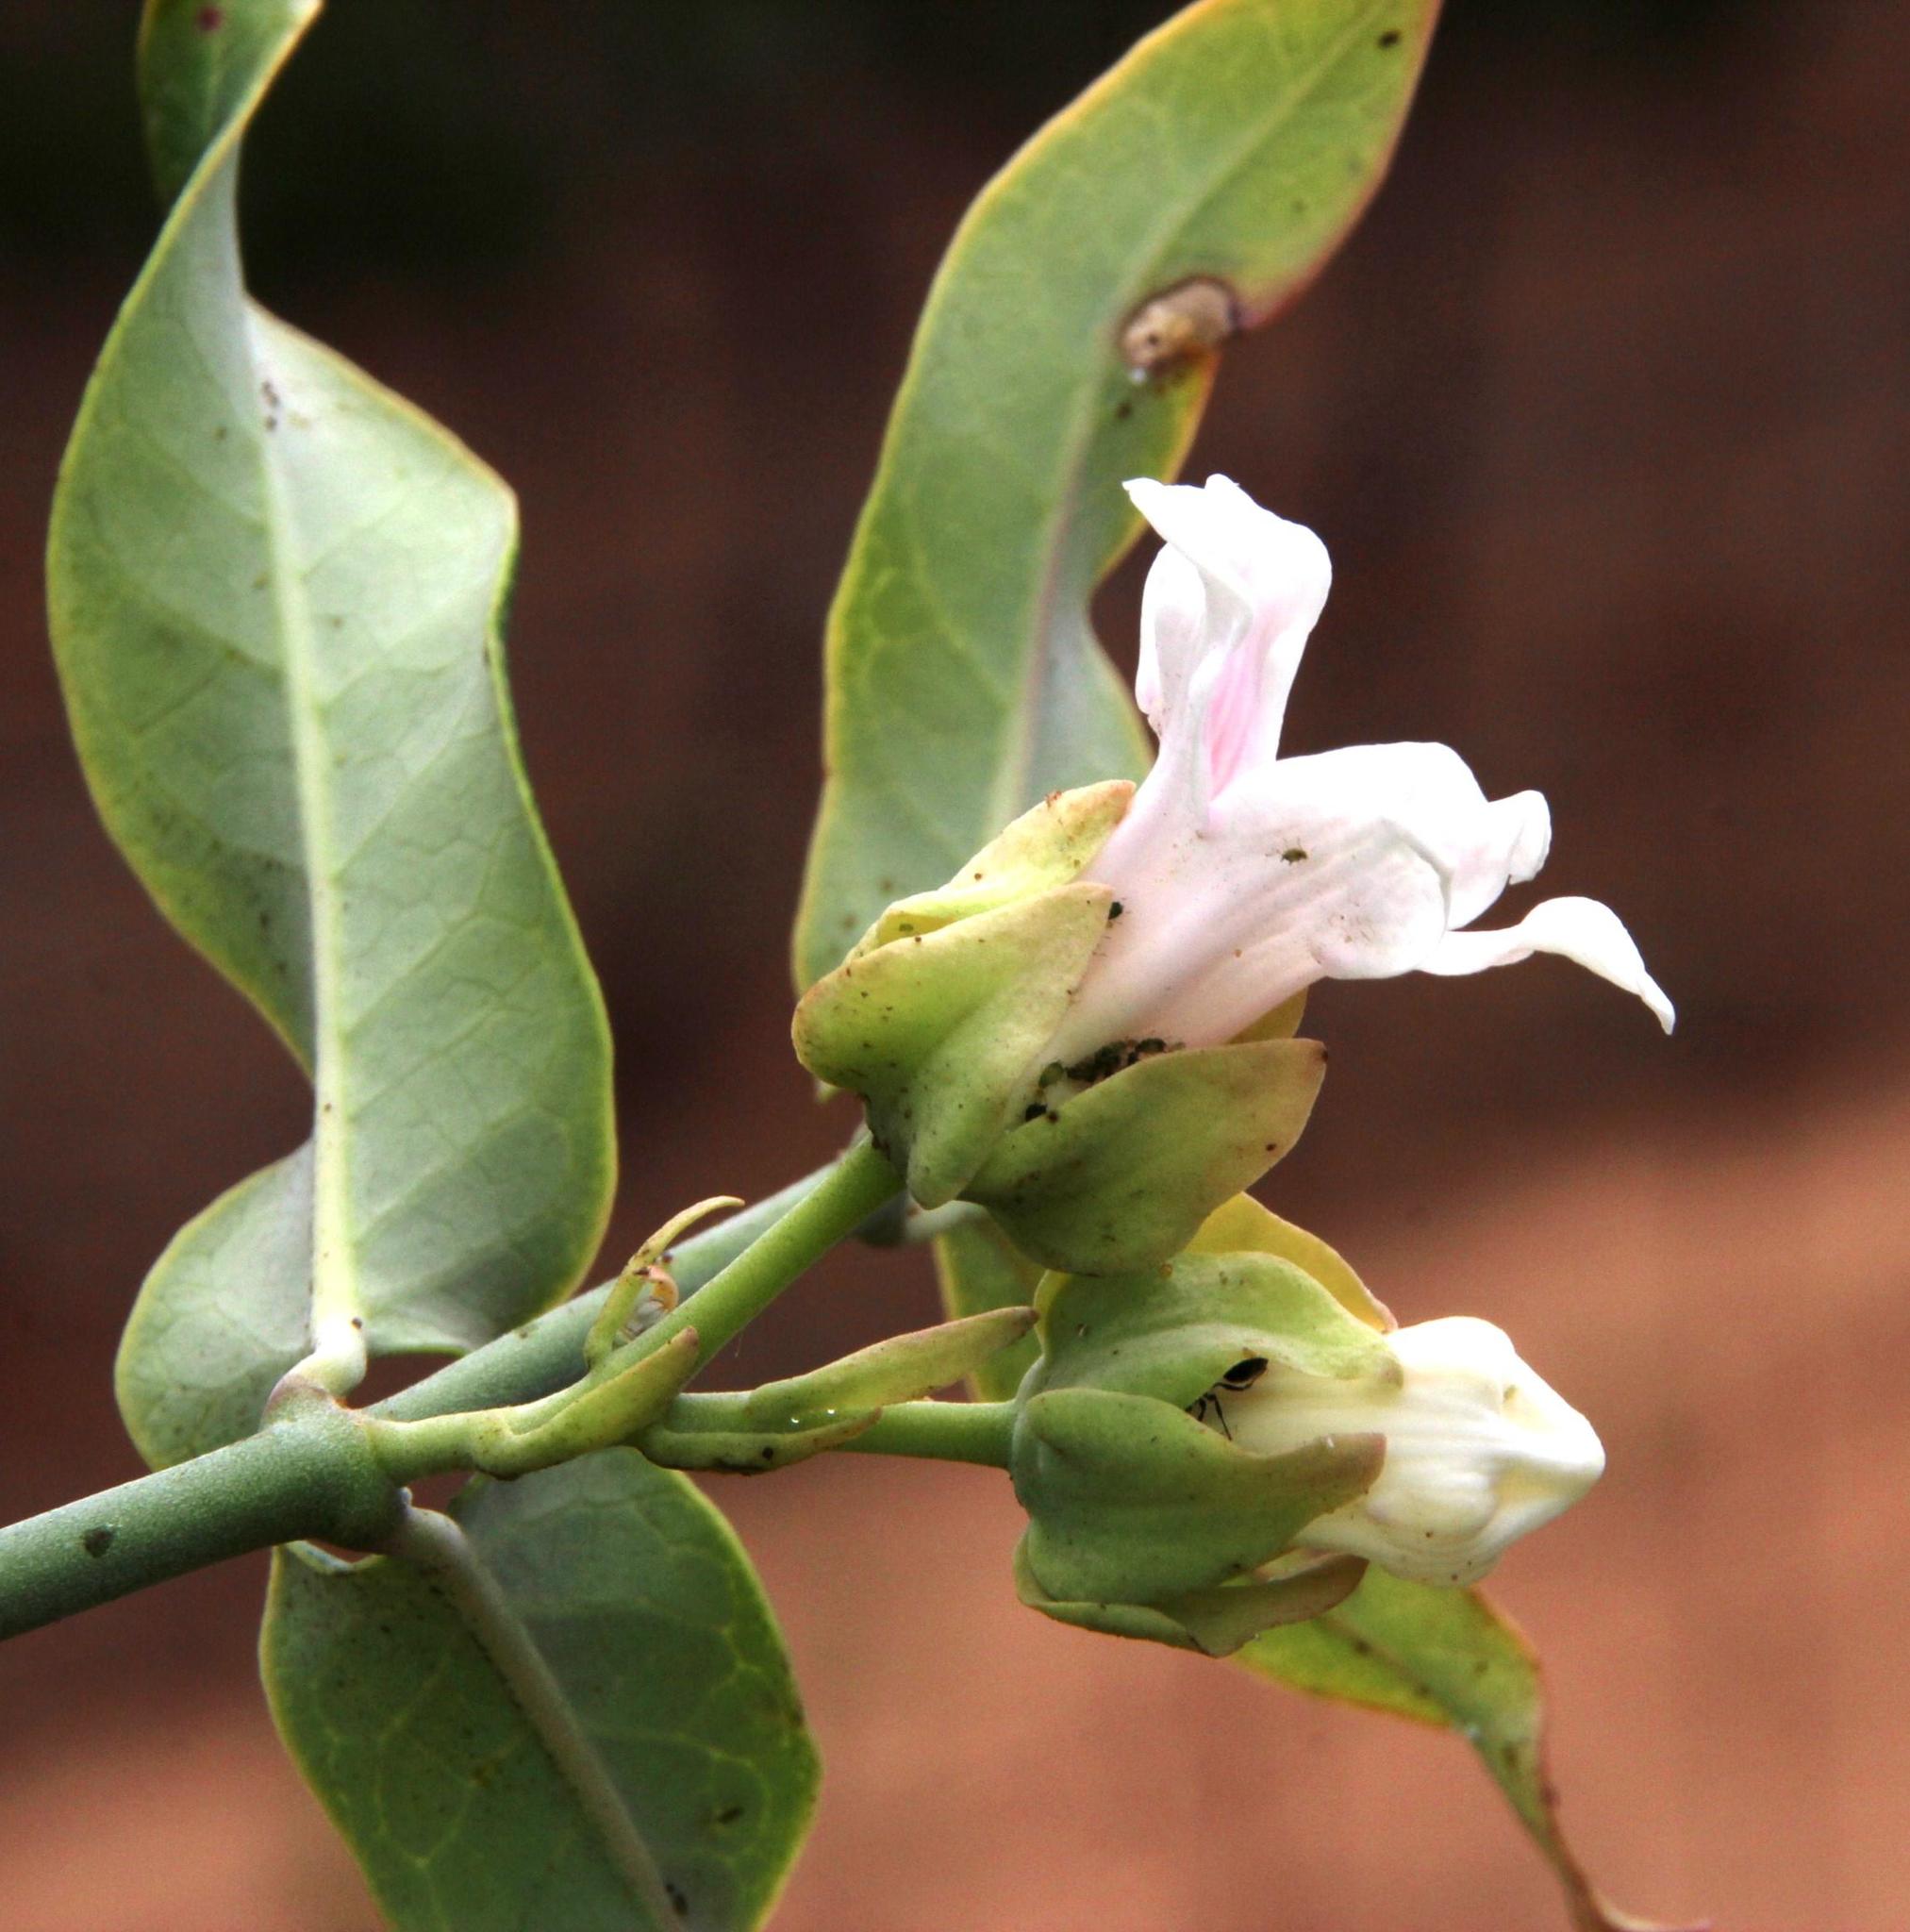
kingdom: Plantae
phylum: Tracheophyta
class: Magnoliopsida
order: Gentianales
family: Apocynaceae
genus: Araujia
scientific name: Araujia sericifera
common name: White bladderflower
